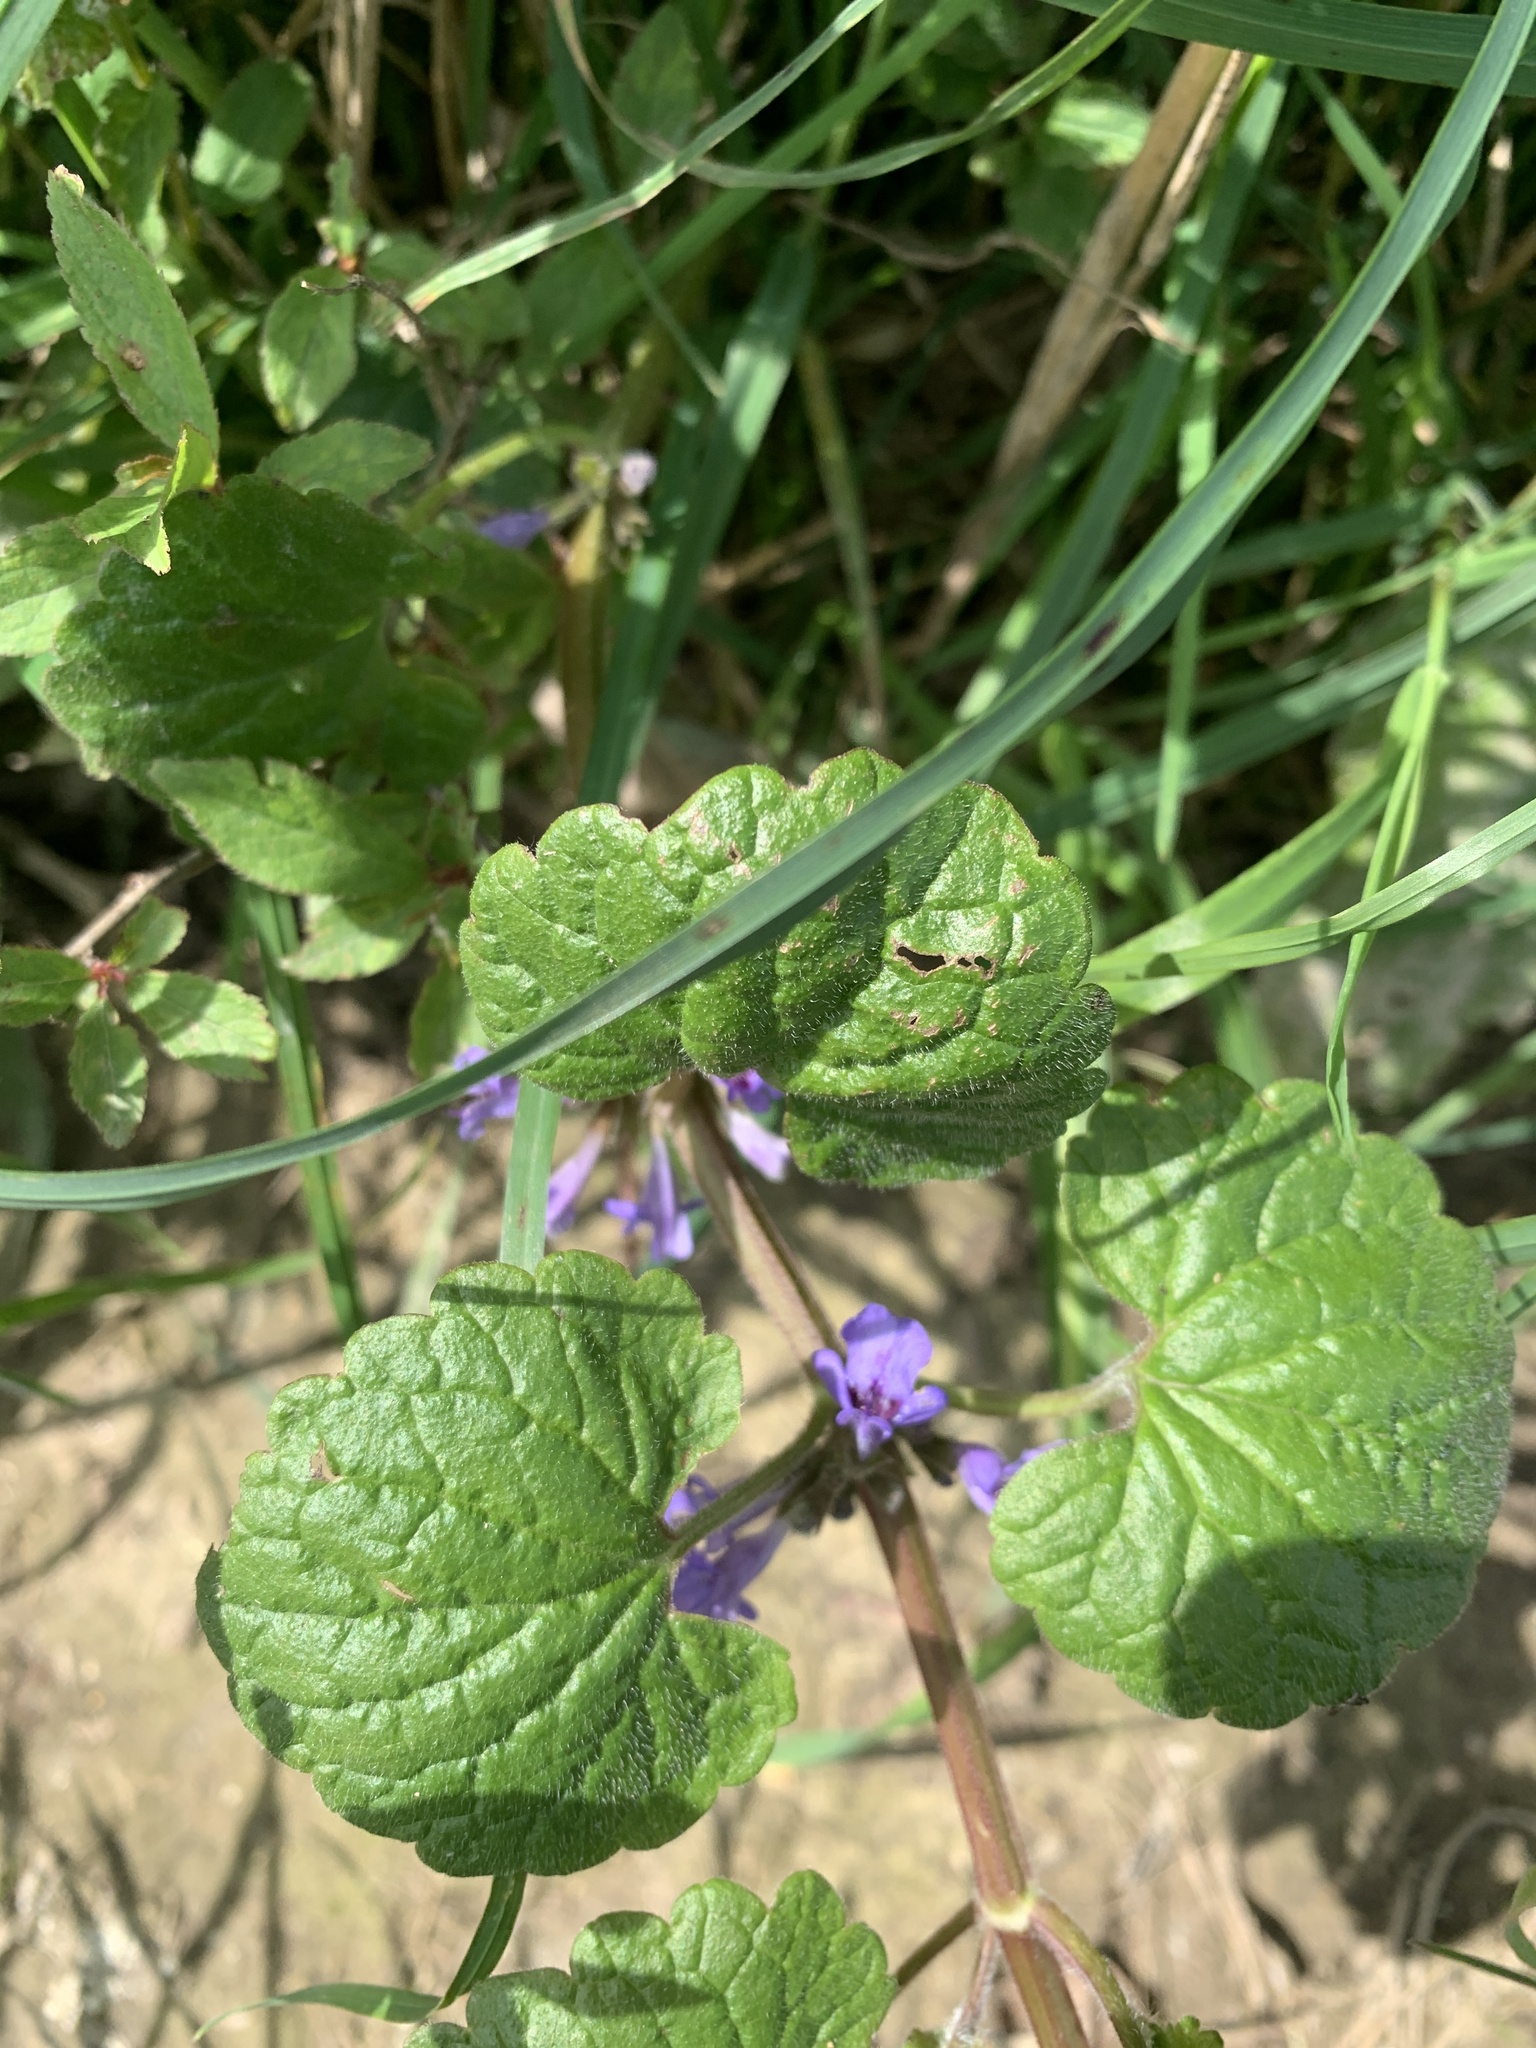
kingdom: Plantae
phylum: Tracheophyta
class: Magnoliopsida
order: Lamiales
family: Lamiaceae
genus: Glechoma
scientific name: Glechoma hederacea
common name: Ground ivy
